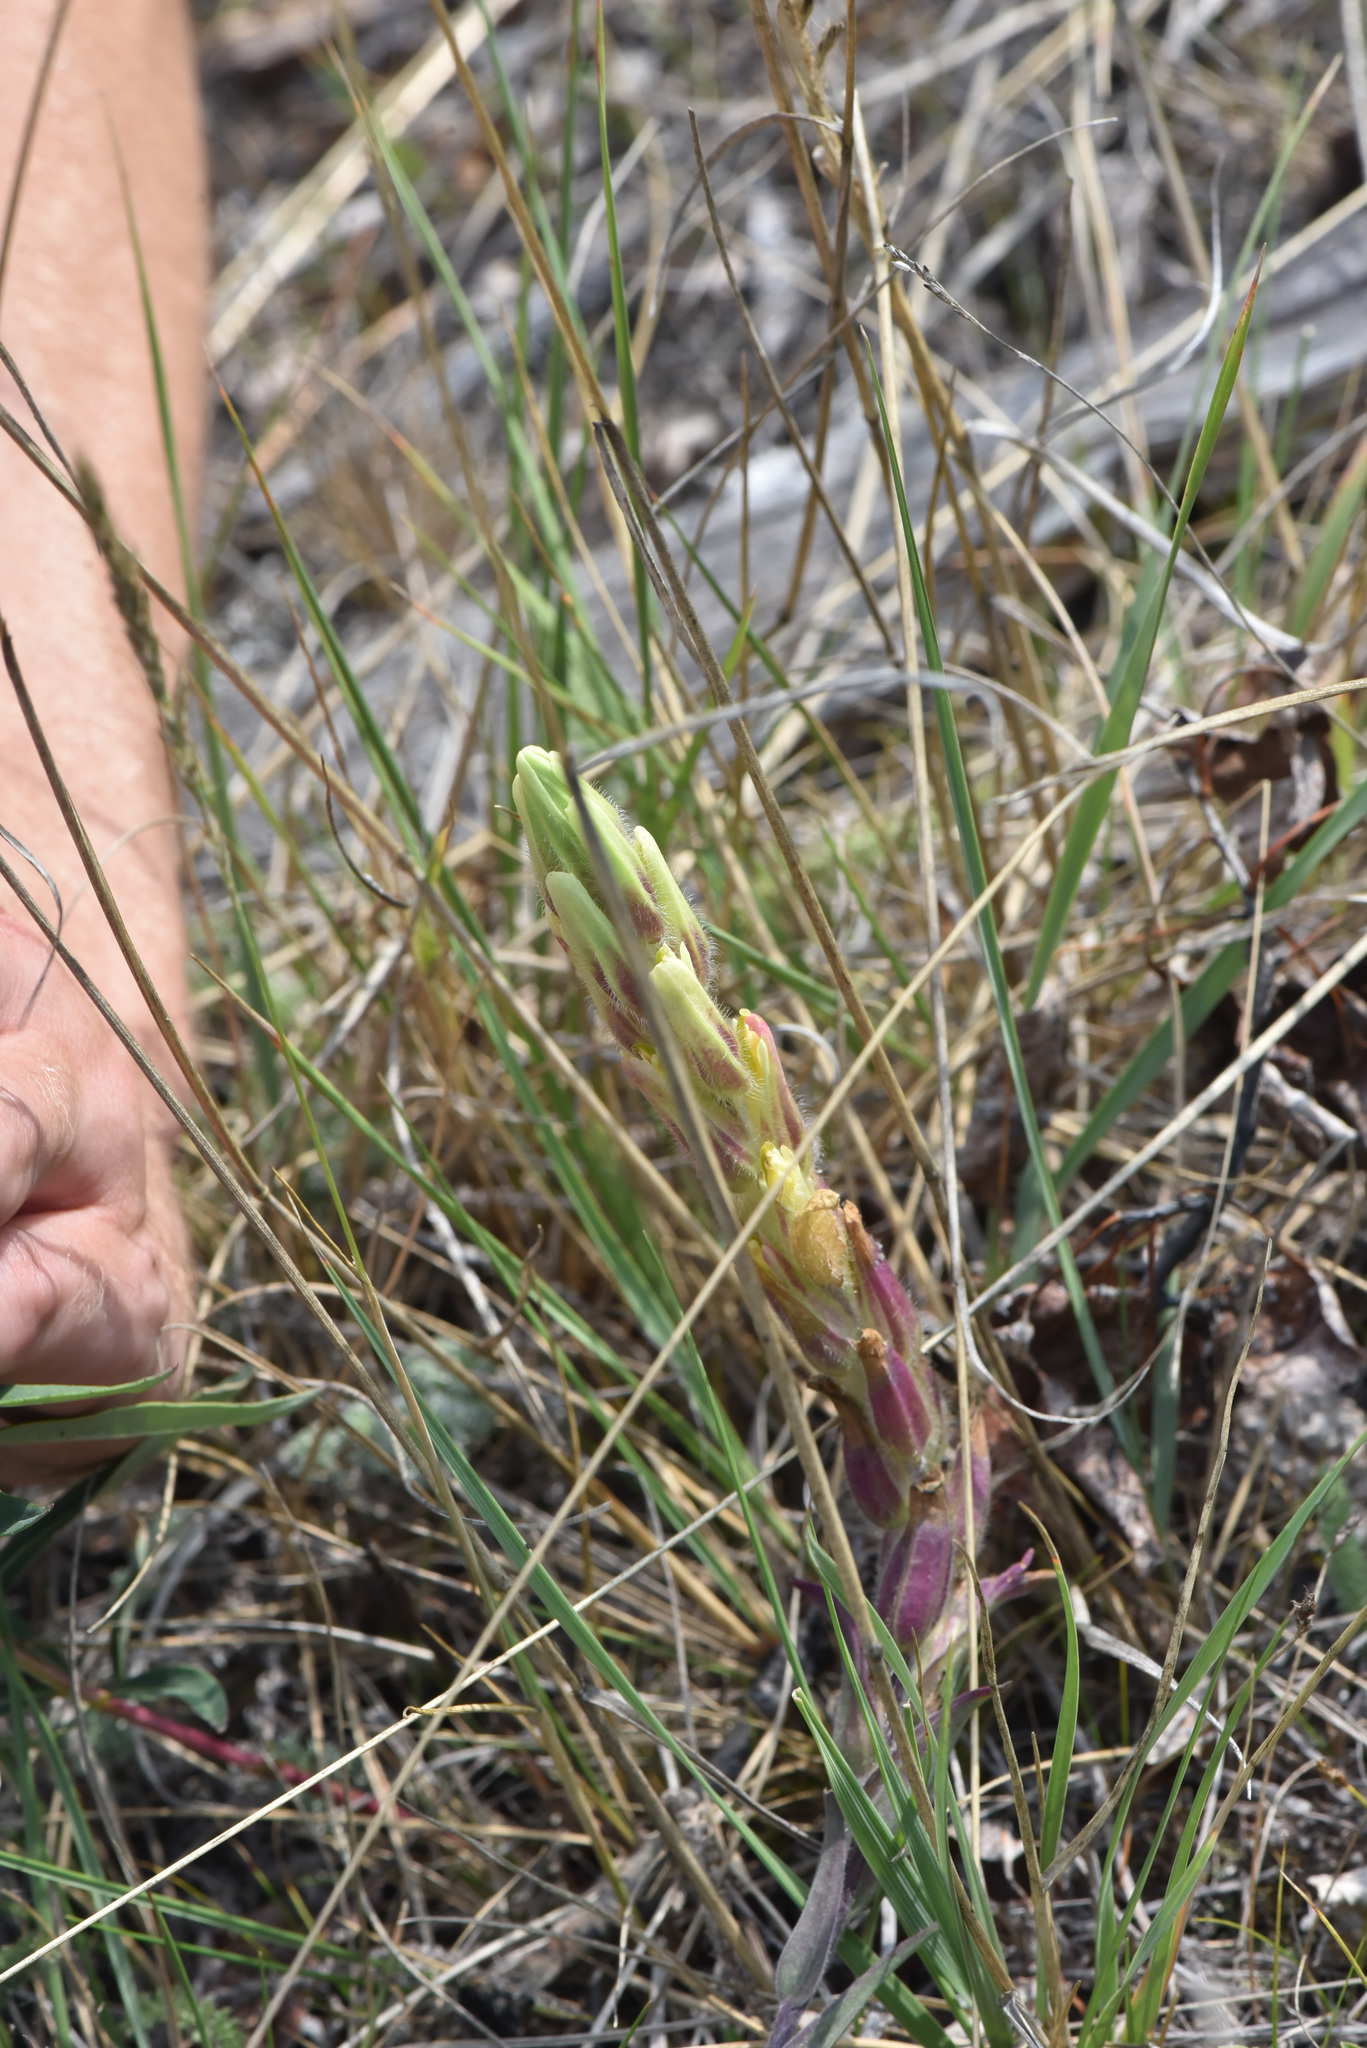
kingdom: Plantae
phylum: Tracheophyta
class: Magnoliopsida
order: Lamiales
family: Orobanchaceae
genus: Castilleja
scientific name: Castilleja pallida
